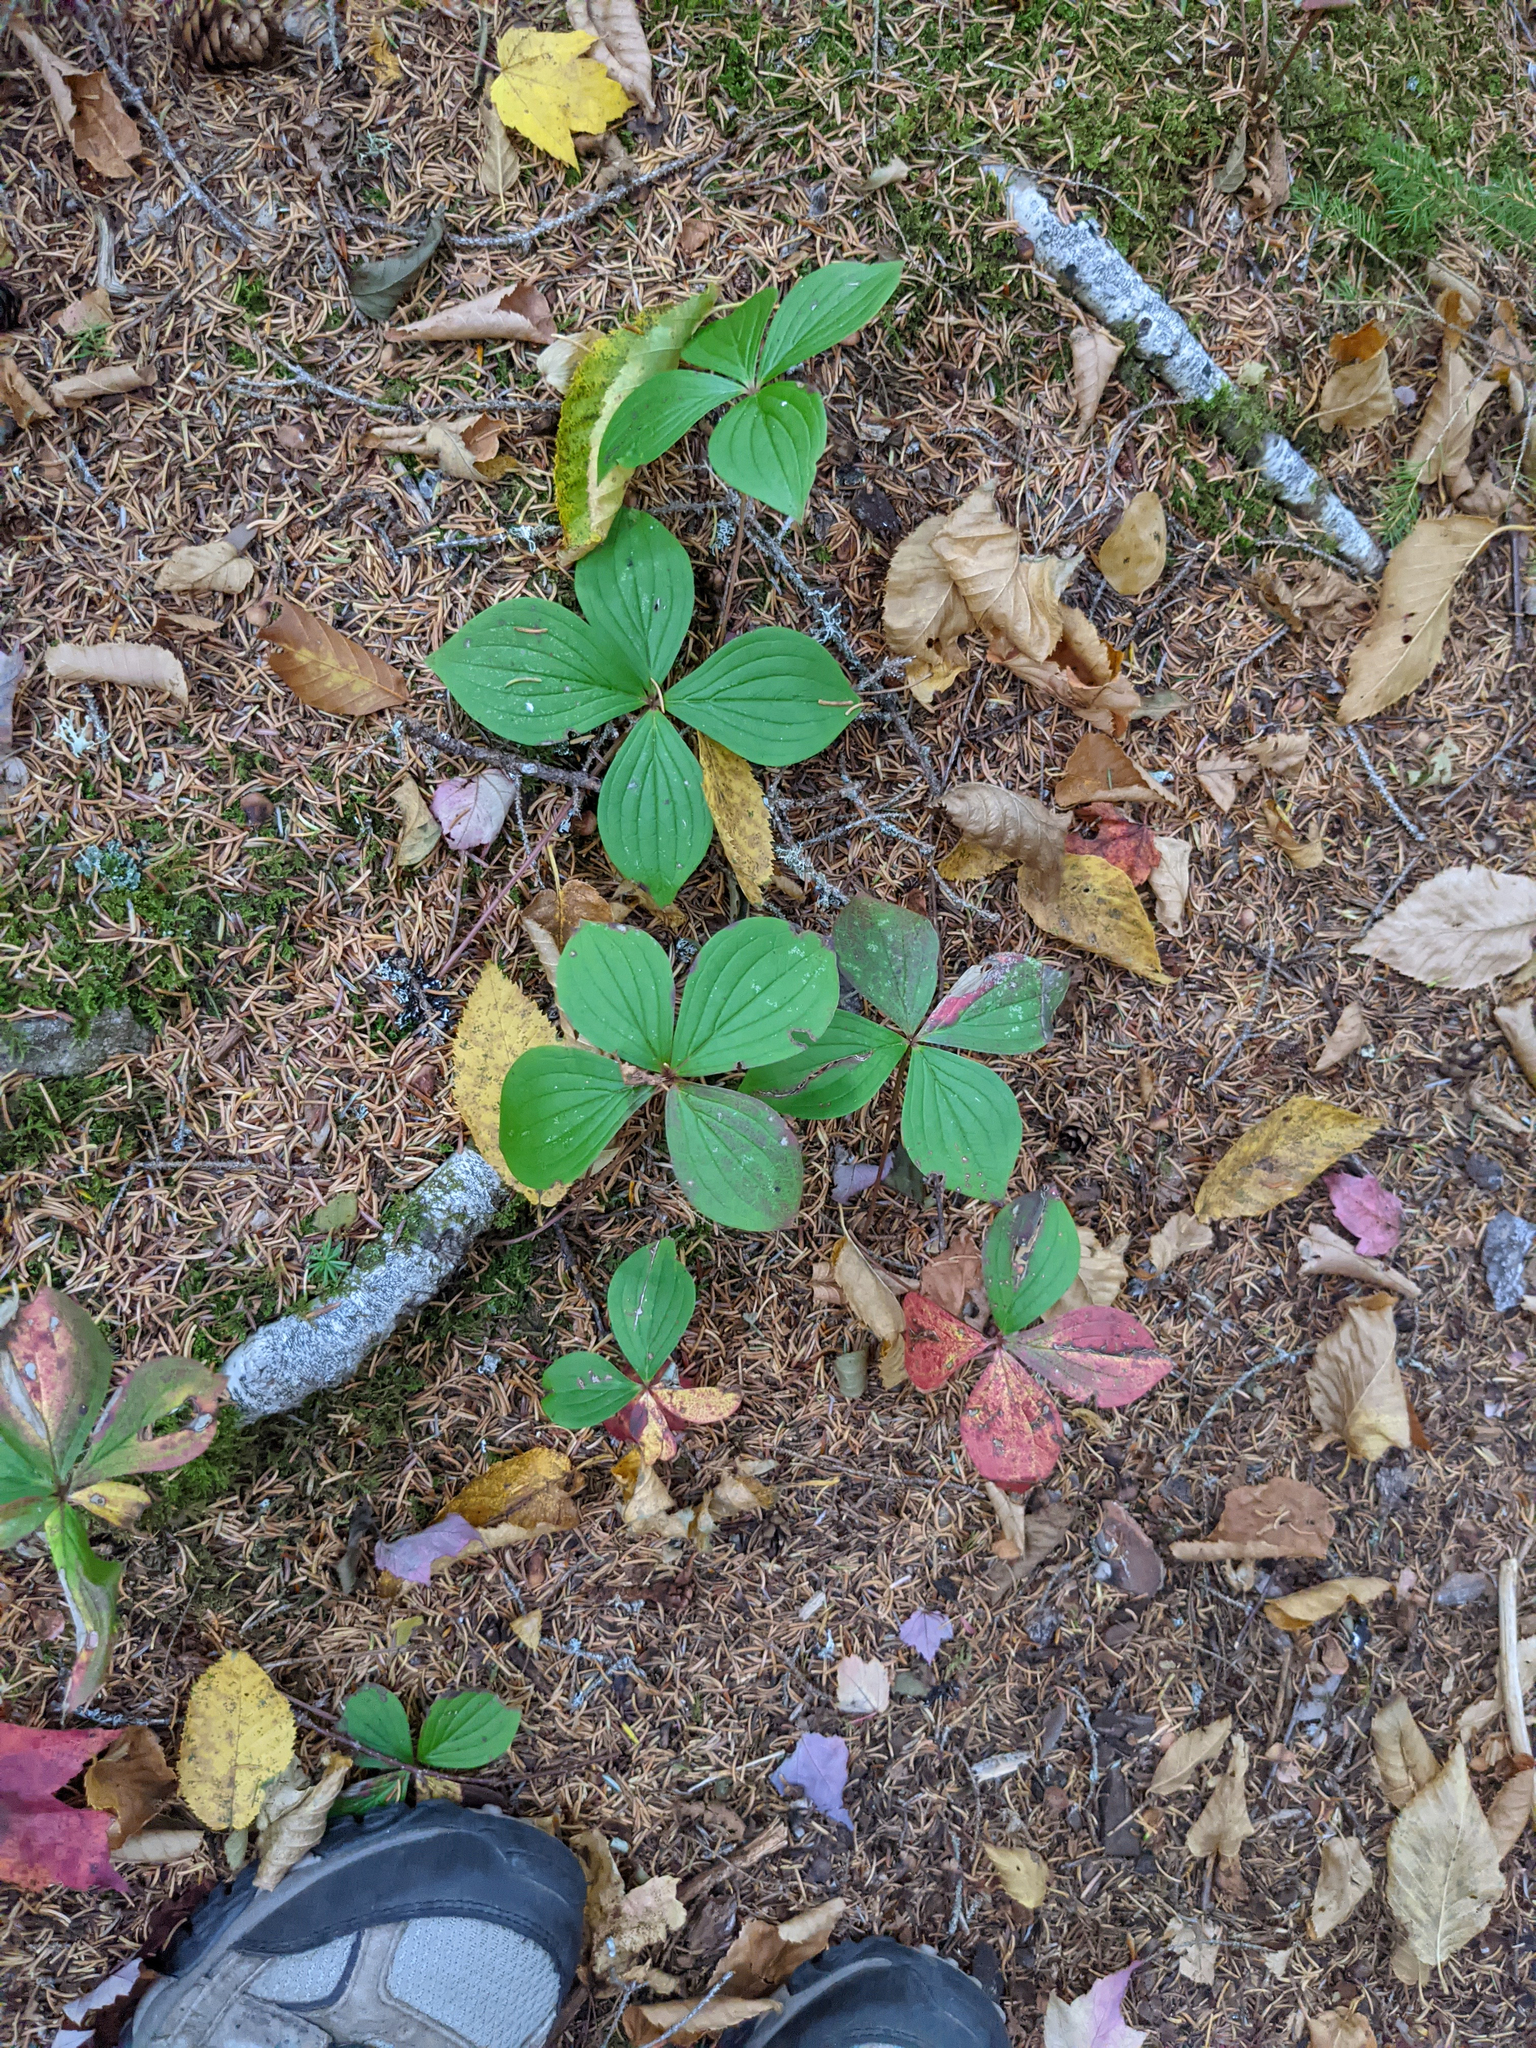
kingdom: Plantae
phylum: Tracheophyta
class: Magnoliopsida
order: Cornales
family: Cornaceae
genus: Cornus
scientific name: Cornus canadensis
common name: Creeping dogwood
